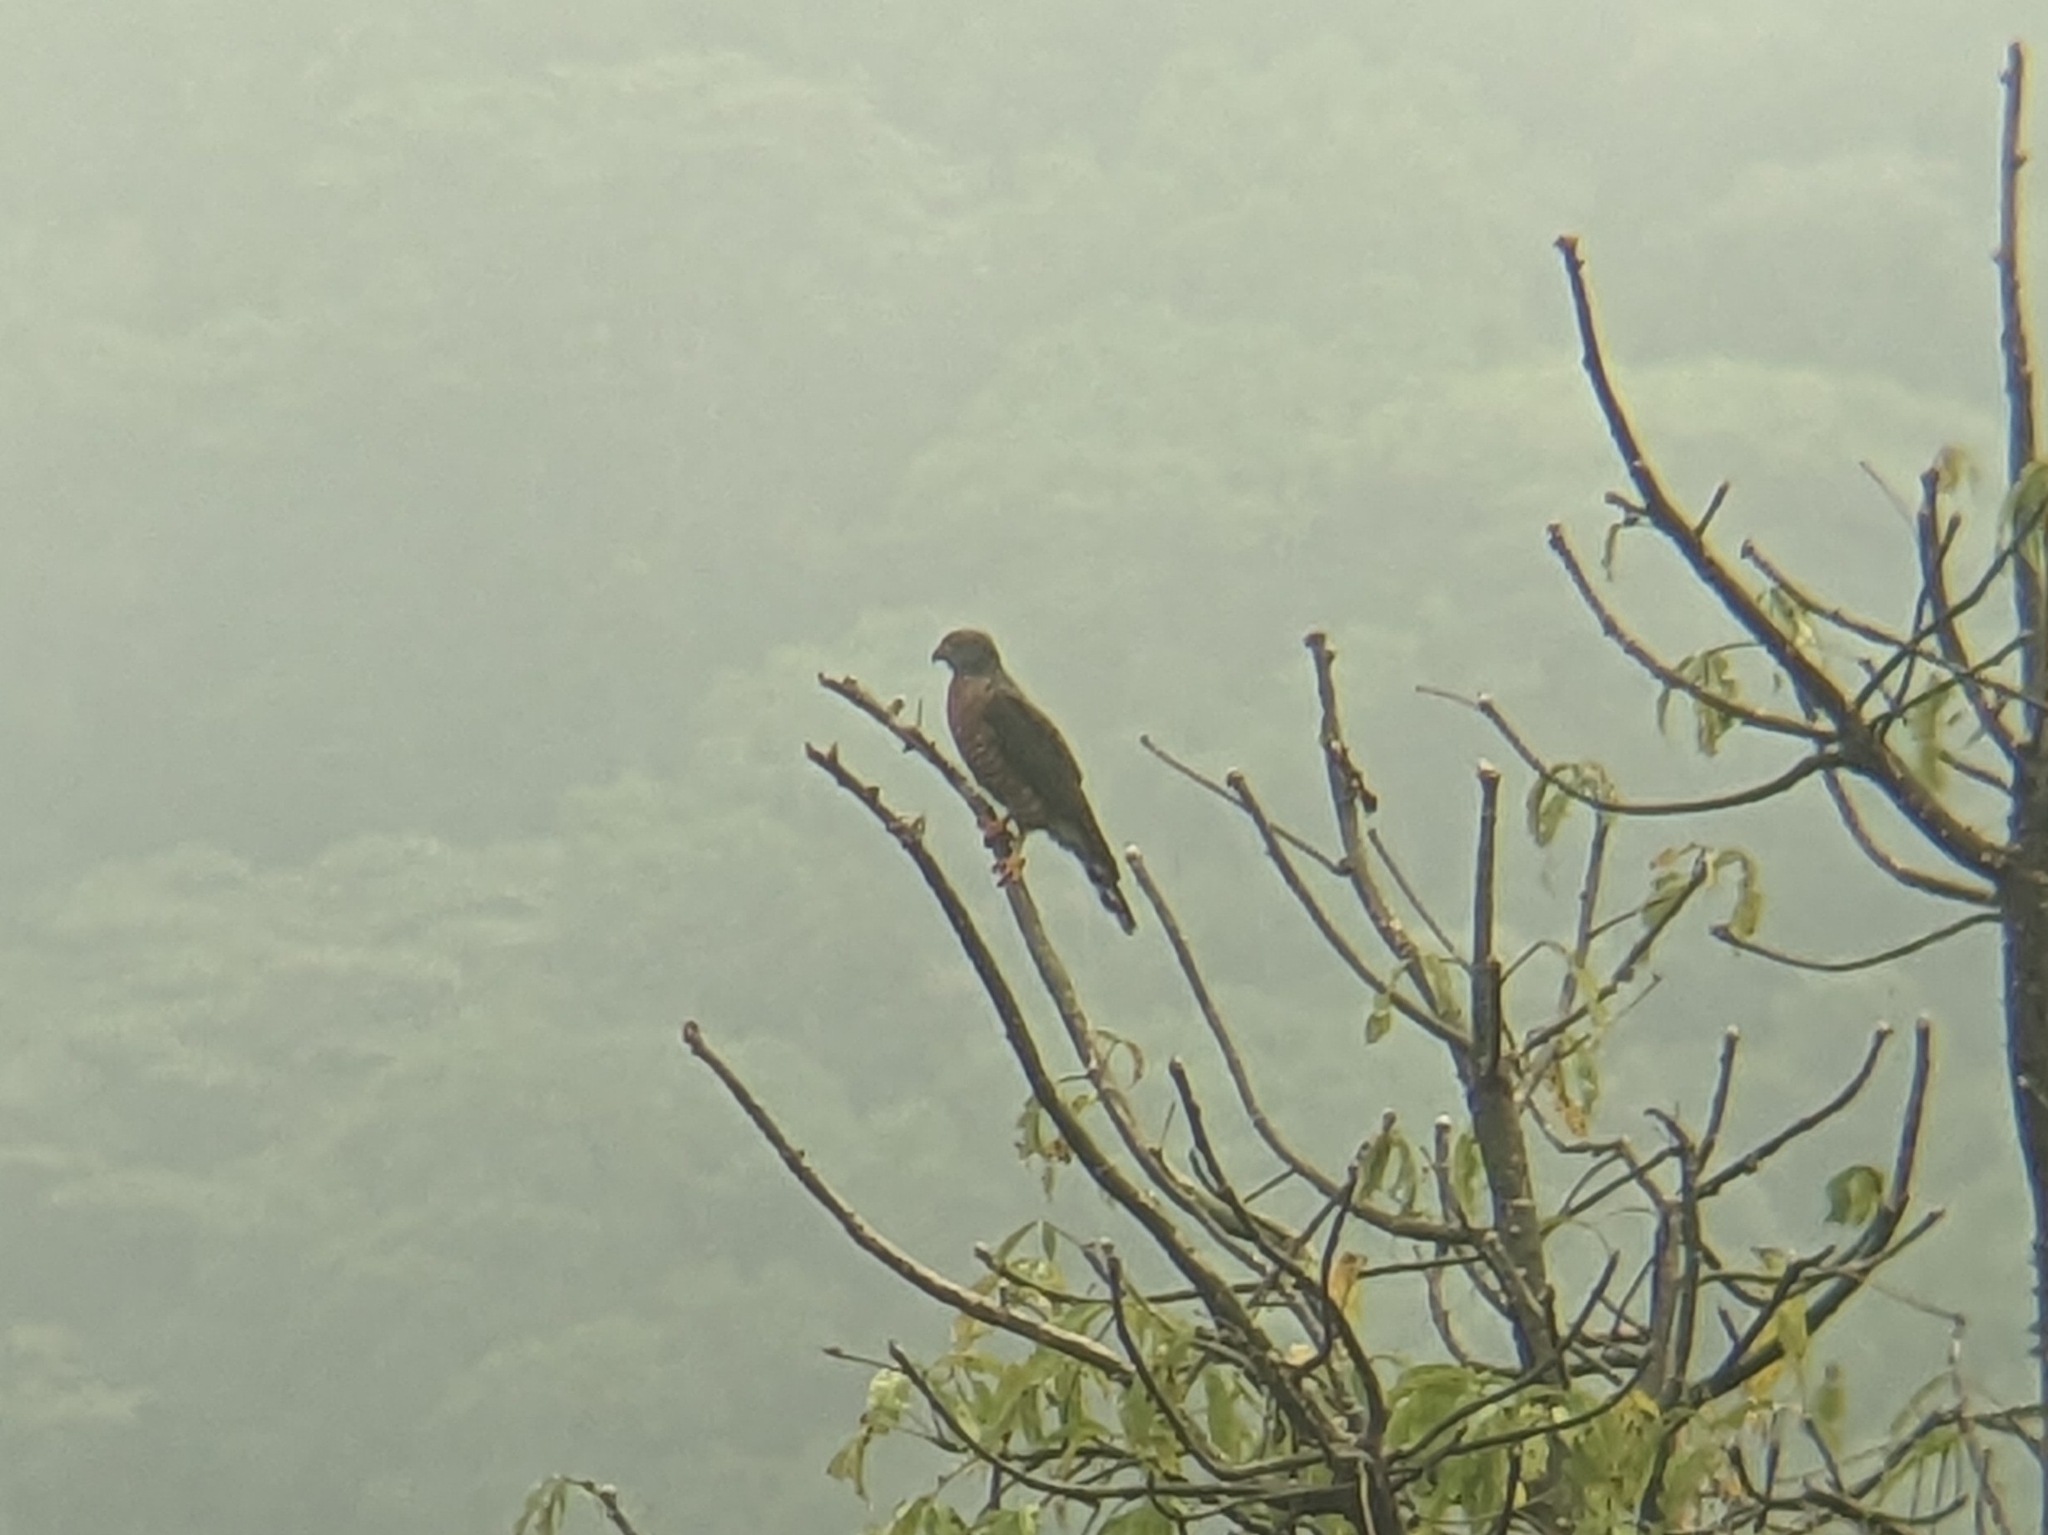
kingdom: Animalia
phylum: Chordata
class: Aves
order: Accipitriformes
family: Accipitridae
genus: Harpagus
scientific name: Harpagus bidentatus
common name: Double-toothed kite
